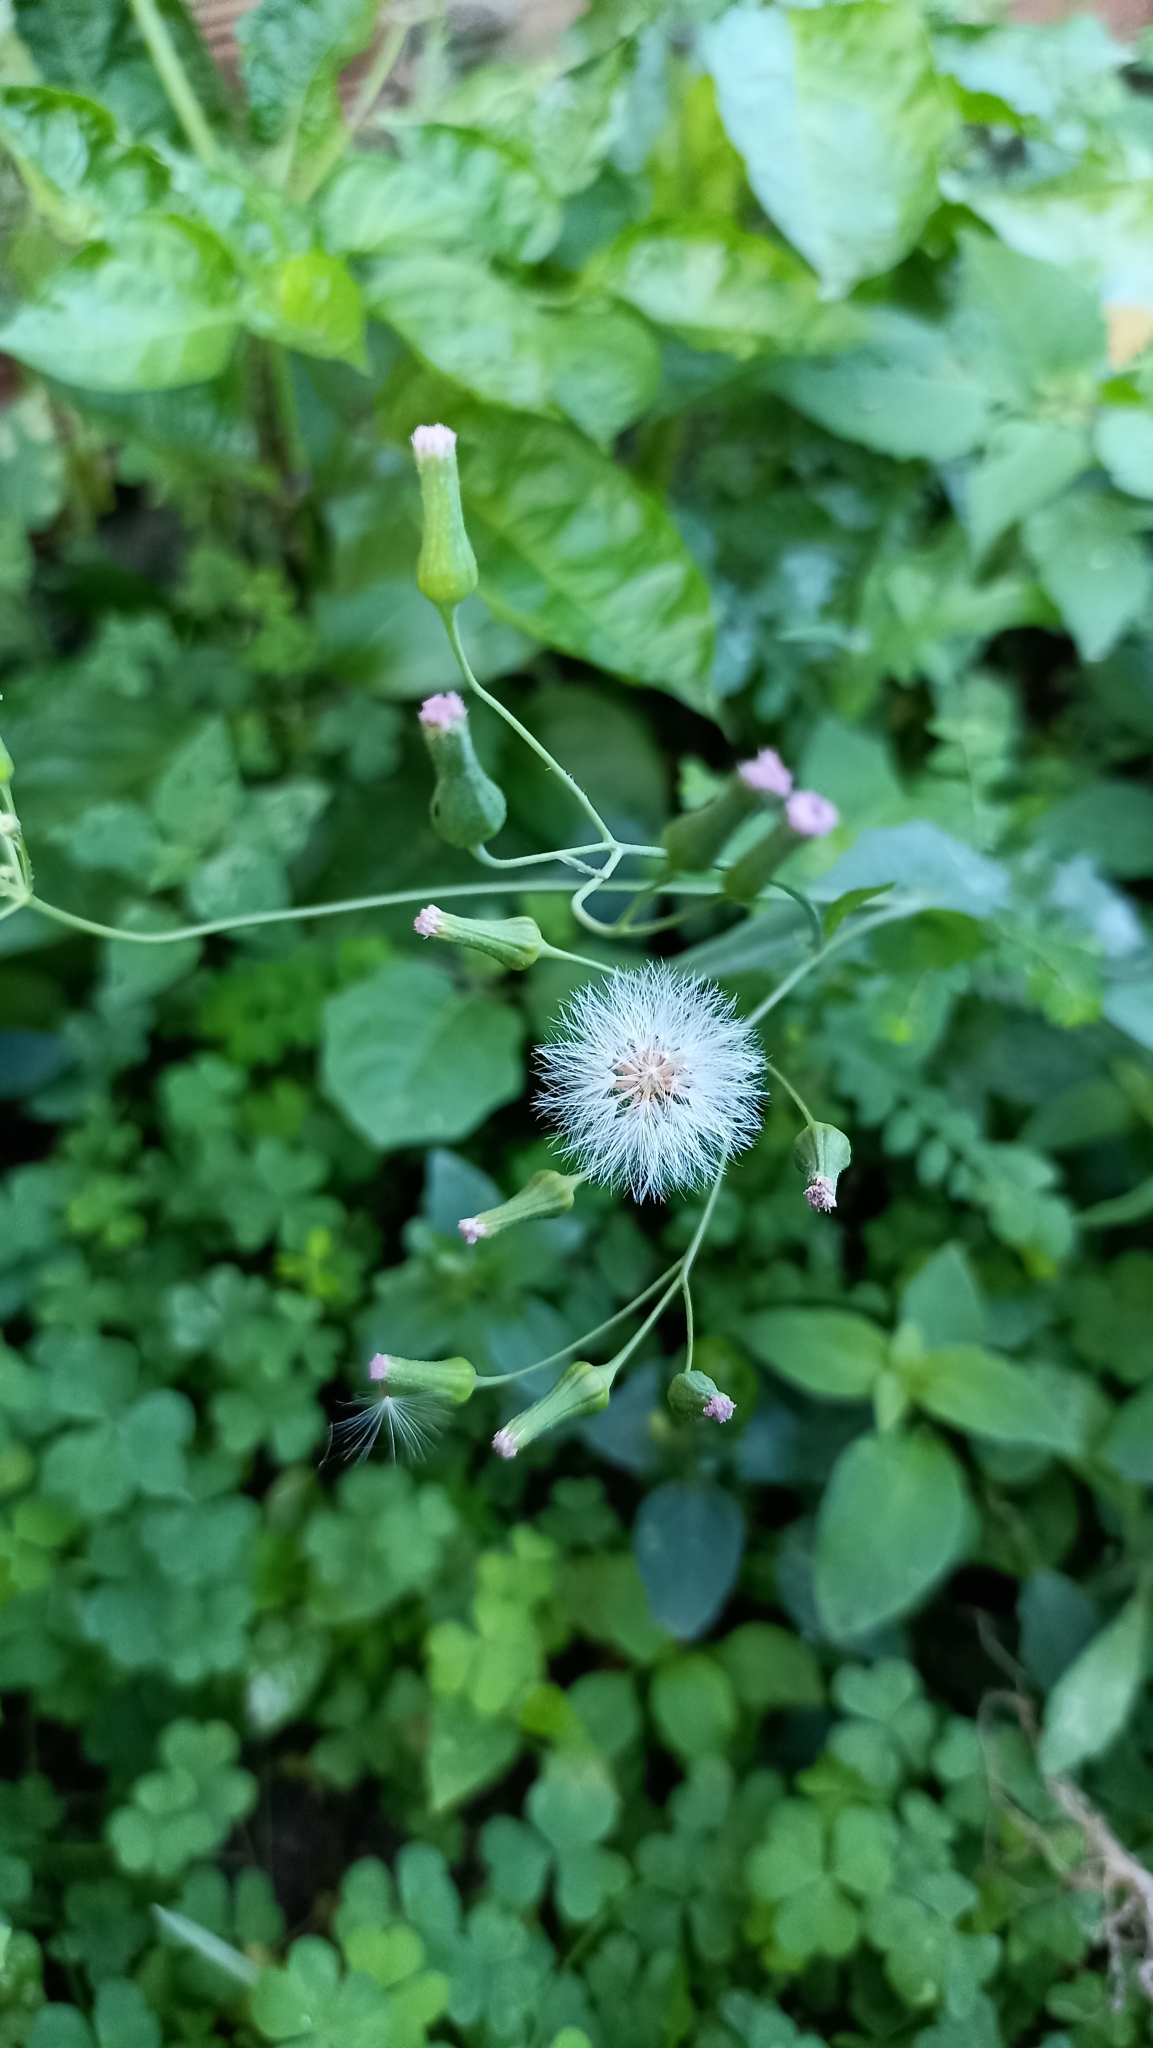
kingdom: Plantae
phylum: Tracheophyta
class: Magnoliopsida
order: Asterales
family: Asteraceae
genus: Emilia
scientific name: Emilia sonchifolia
